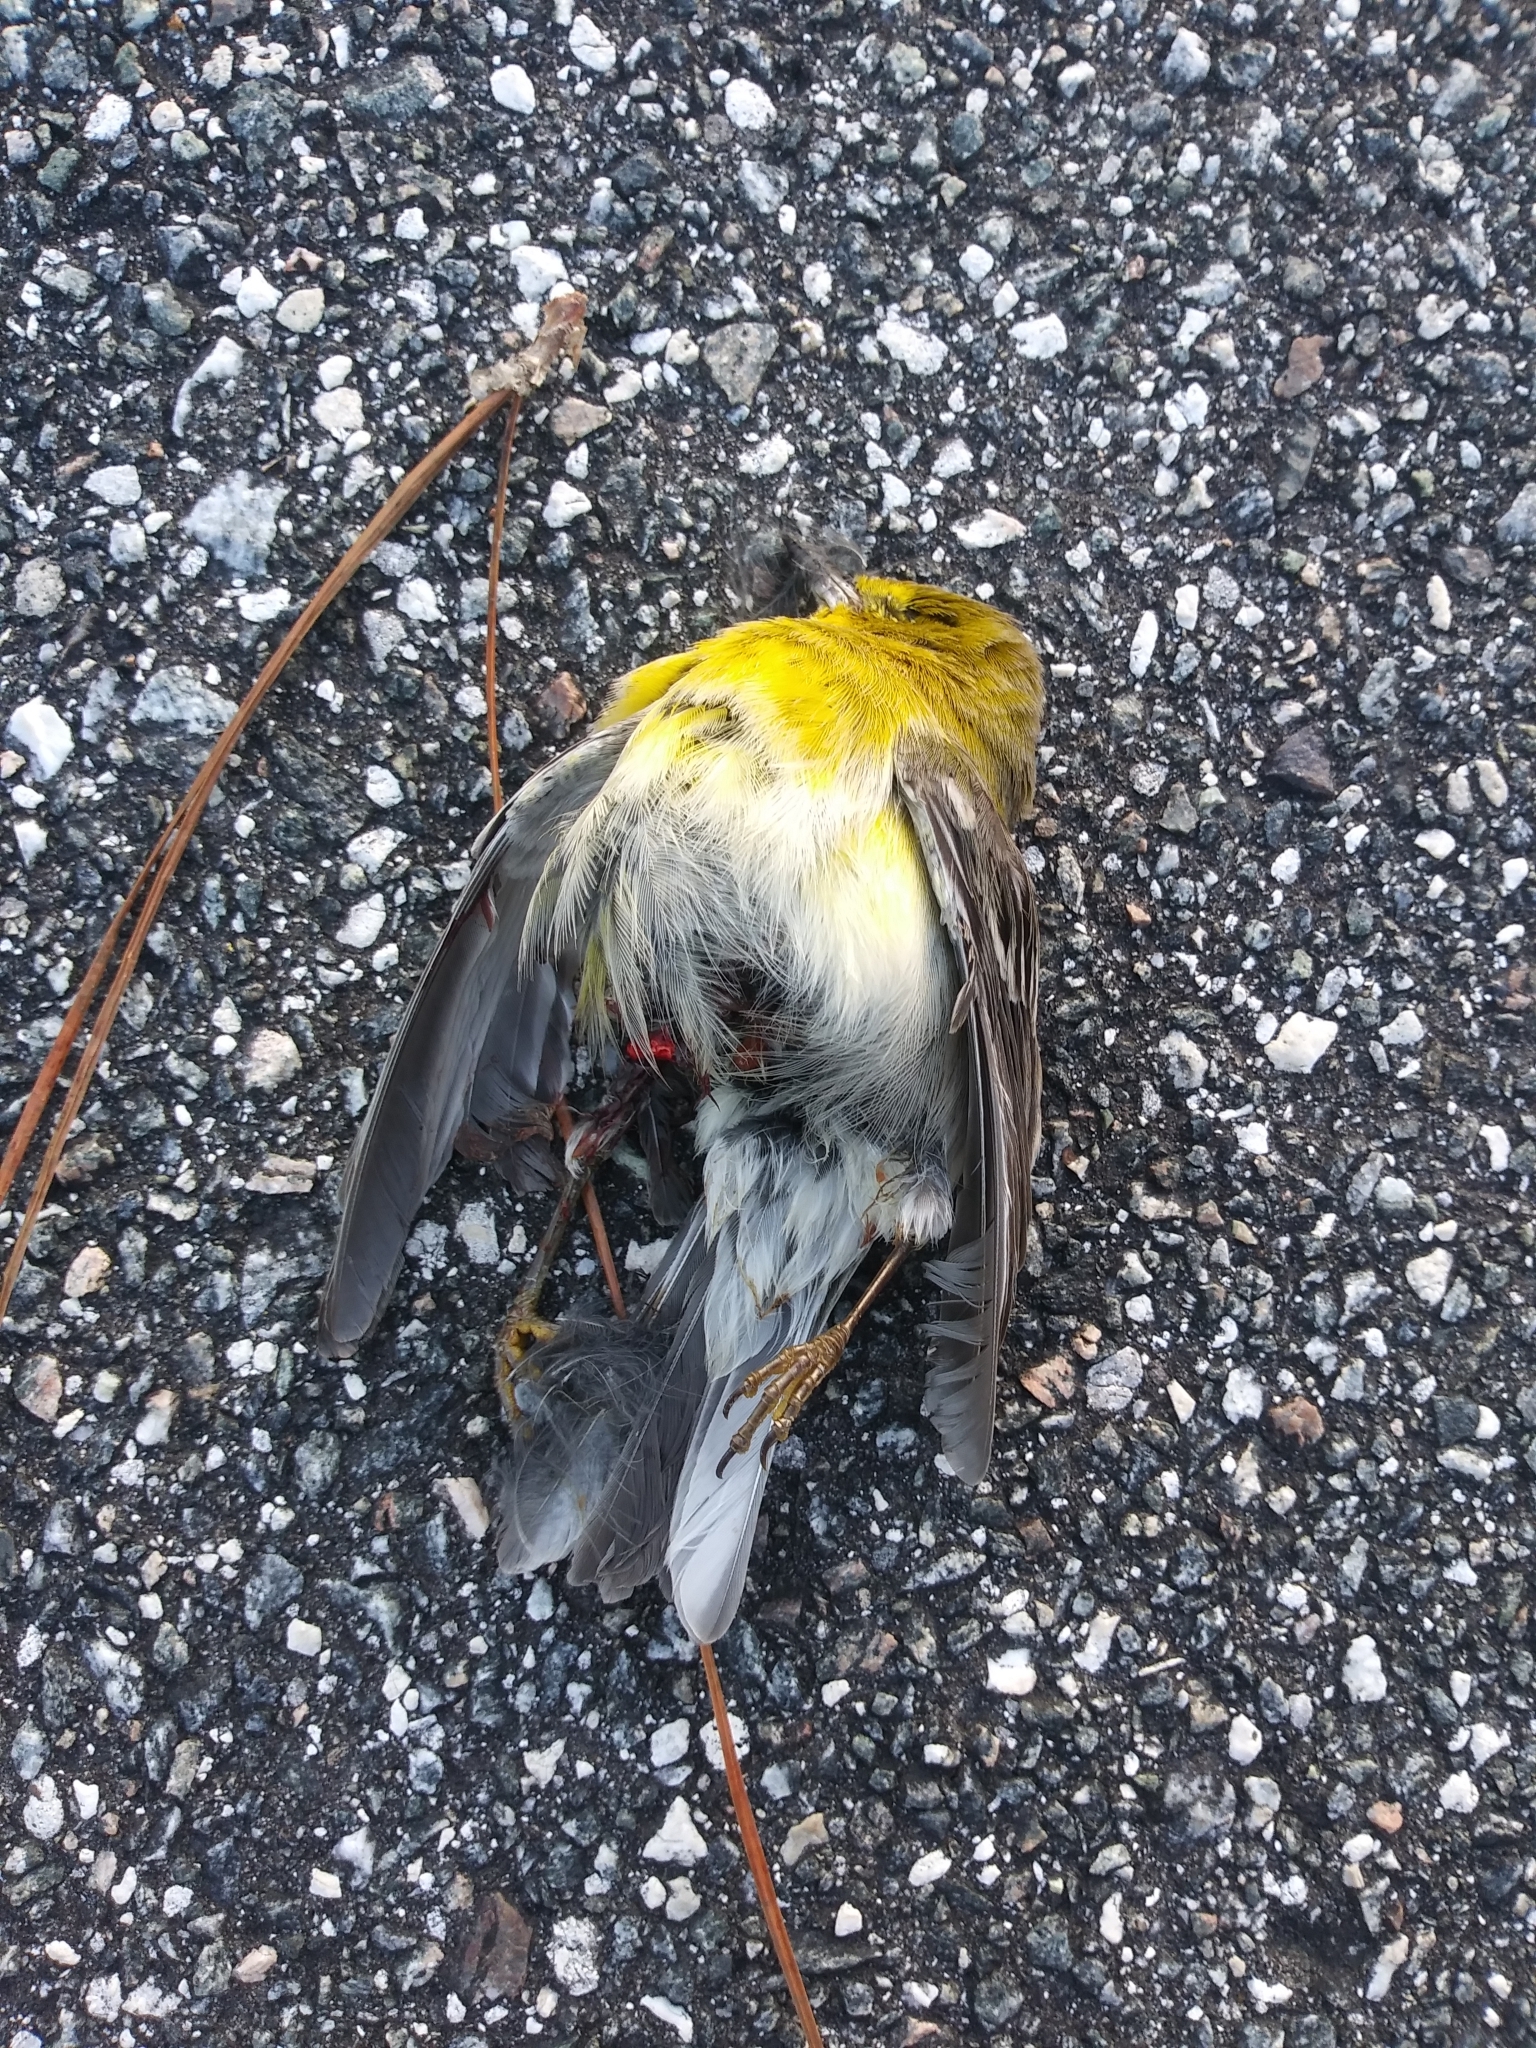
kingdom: Animalia
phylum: Chordata
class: Aves
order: Passeriformes
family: Parulidae
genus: Setophaga
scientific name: Setophaga pinus
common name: Pine warbler
